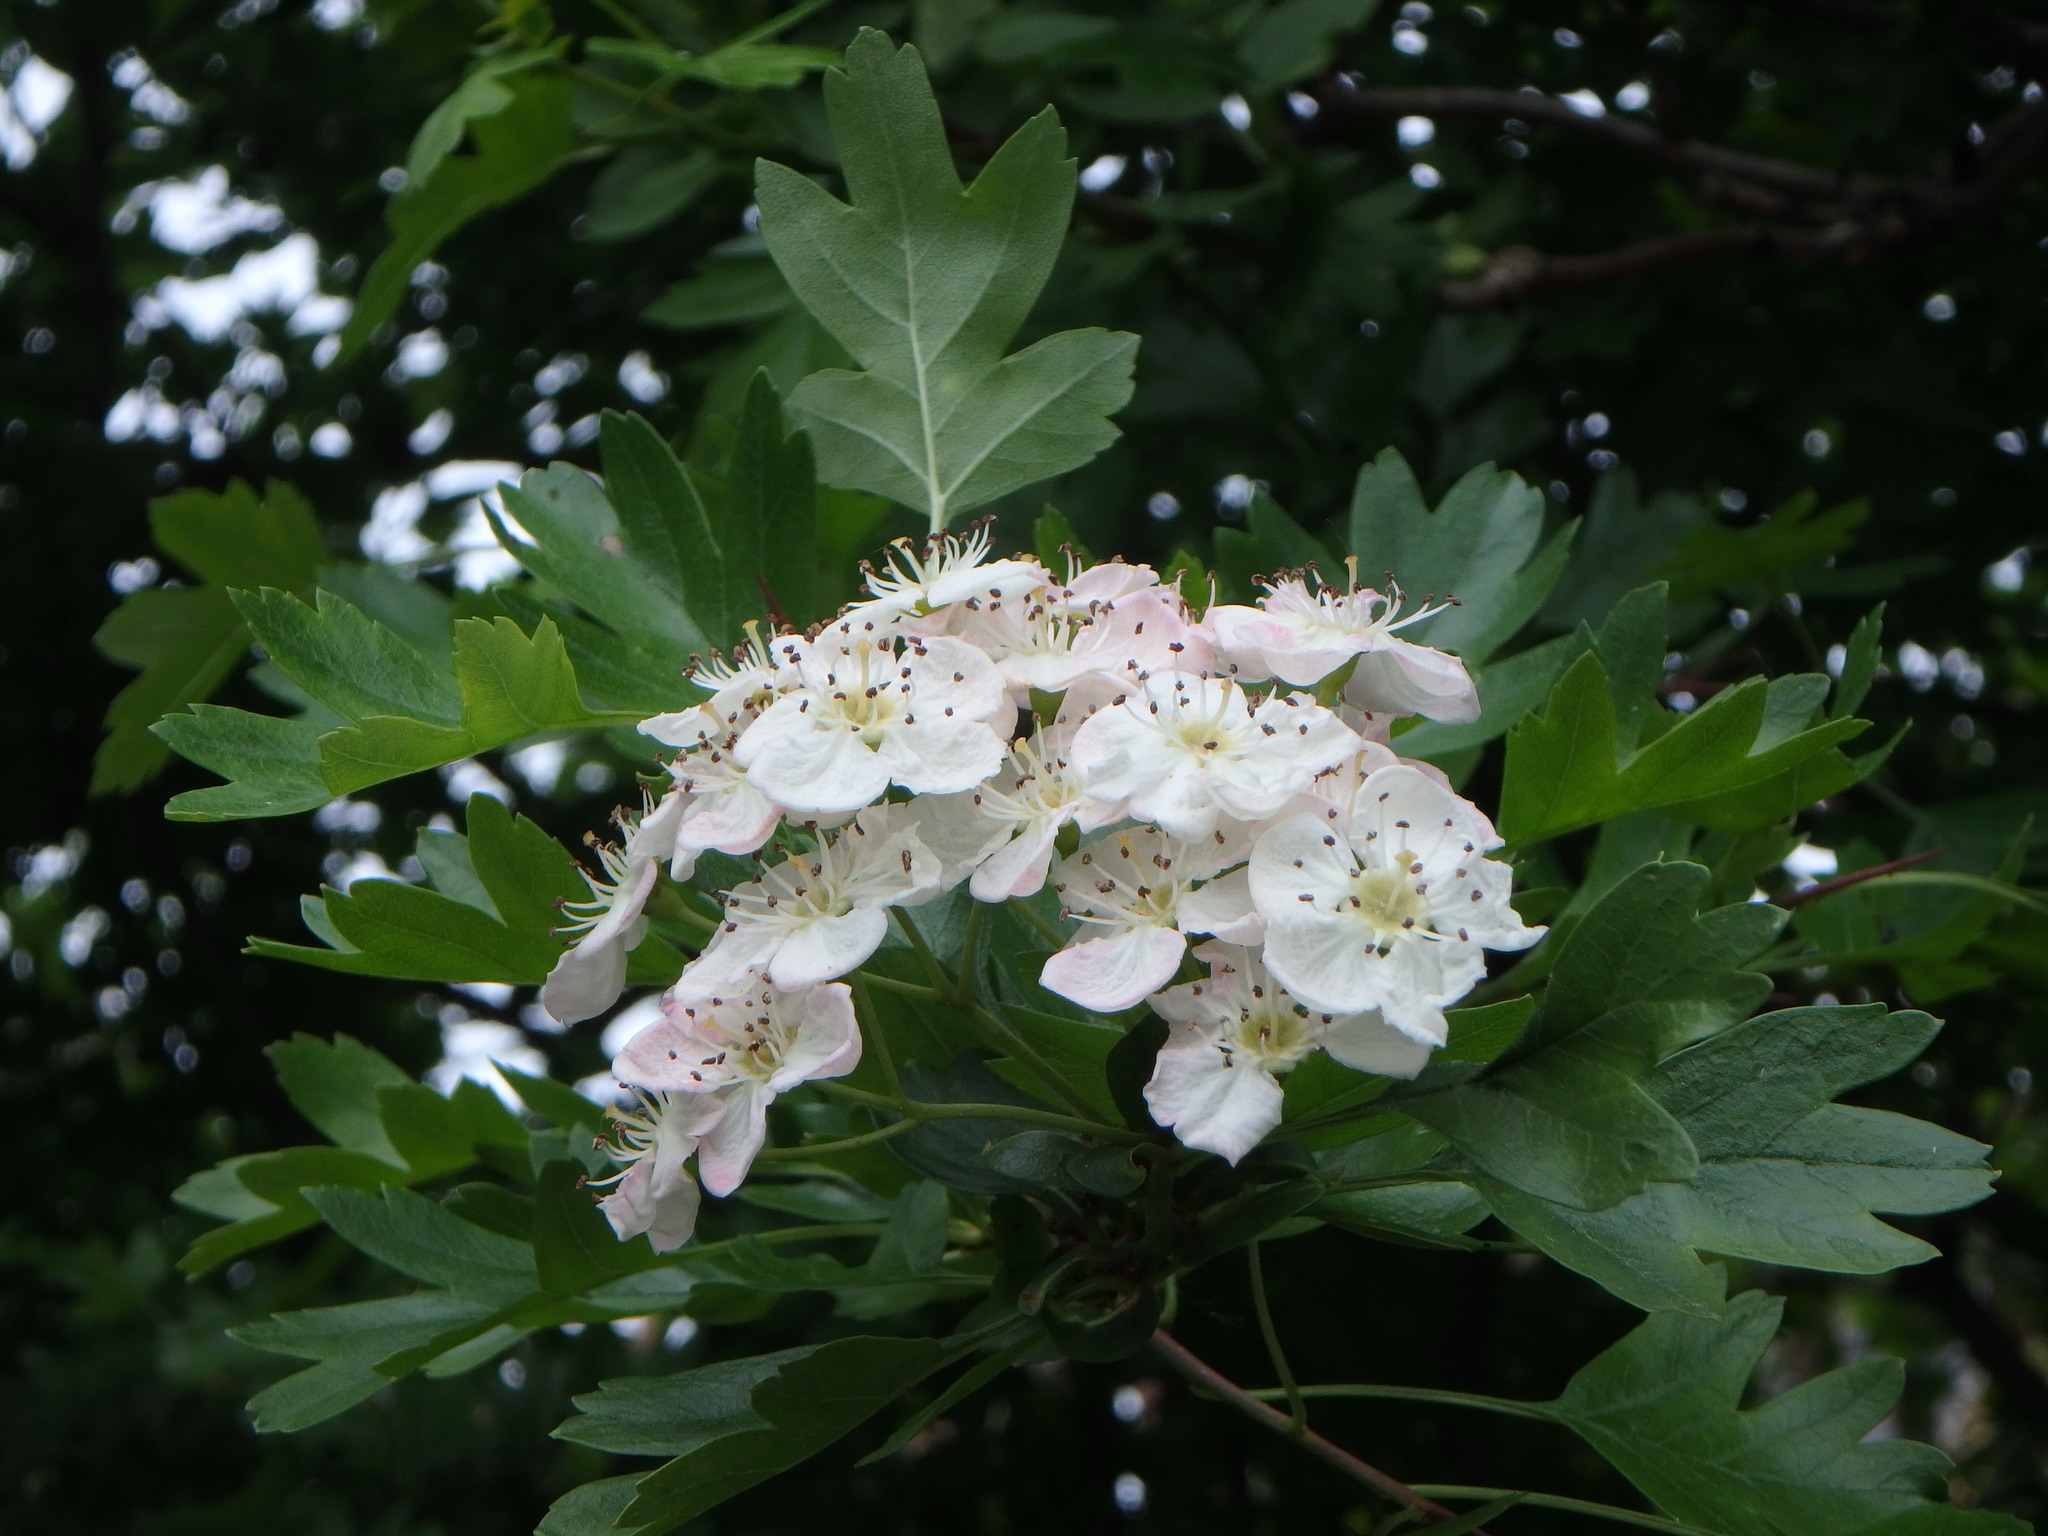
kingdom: Plantae
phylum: Tracheophyta
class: Magnoliopsida
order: Rosales
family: Rosaceae
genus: Crataegus
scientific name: Crataegus monogyna
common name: Hawthorn
